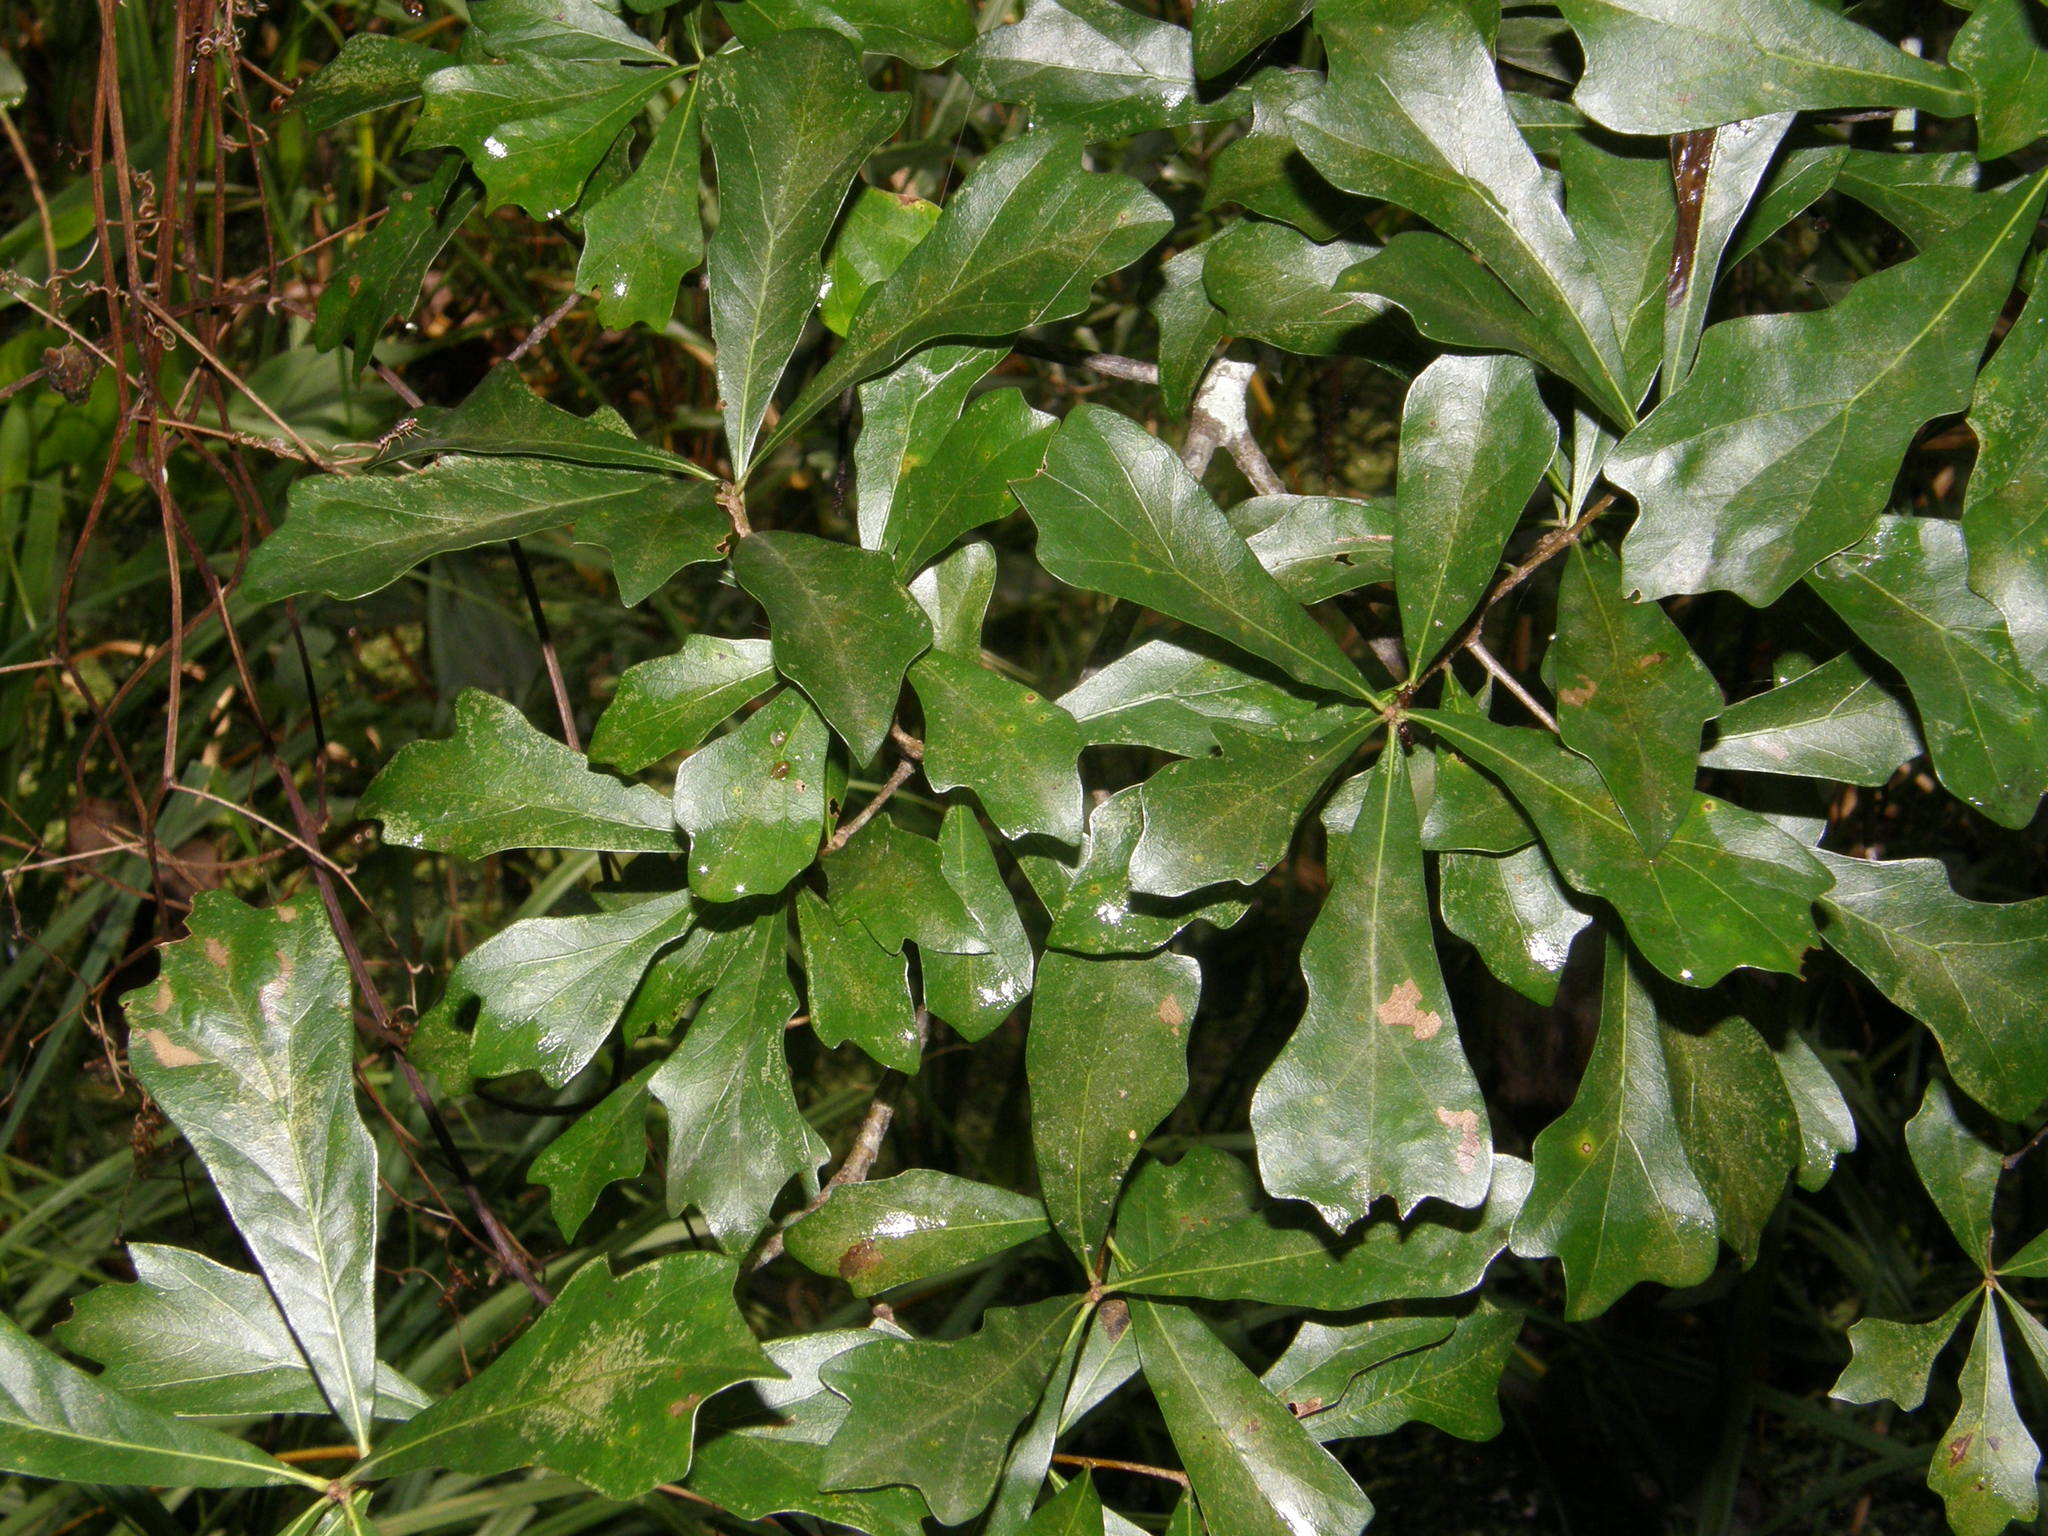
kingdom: Plantae
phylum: Tracheophyta
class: Magnoliopsida
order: Fagales
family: Fagaceae
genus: Quercus
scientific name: Quercus nigra
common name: Water oak
